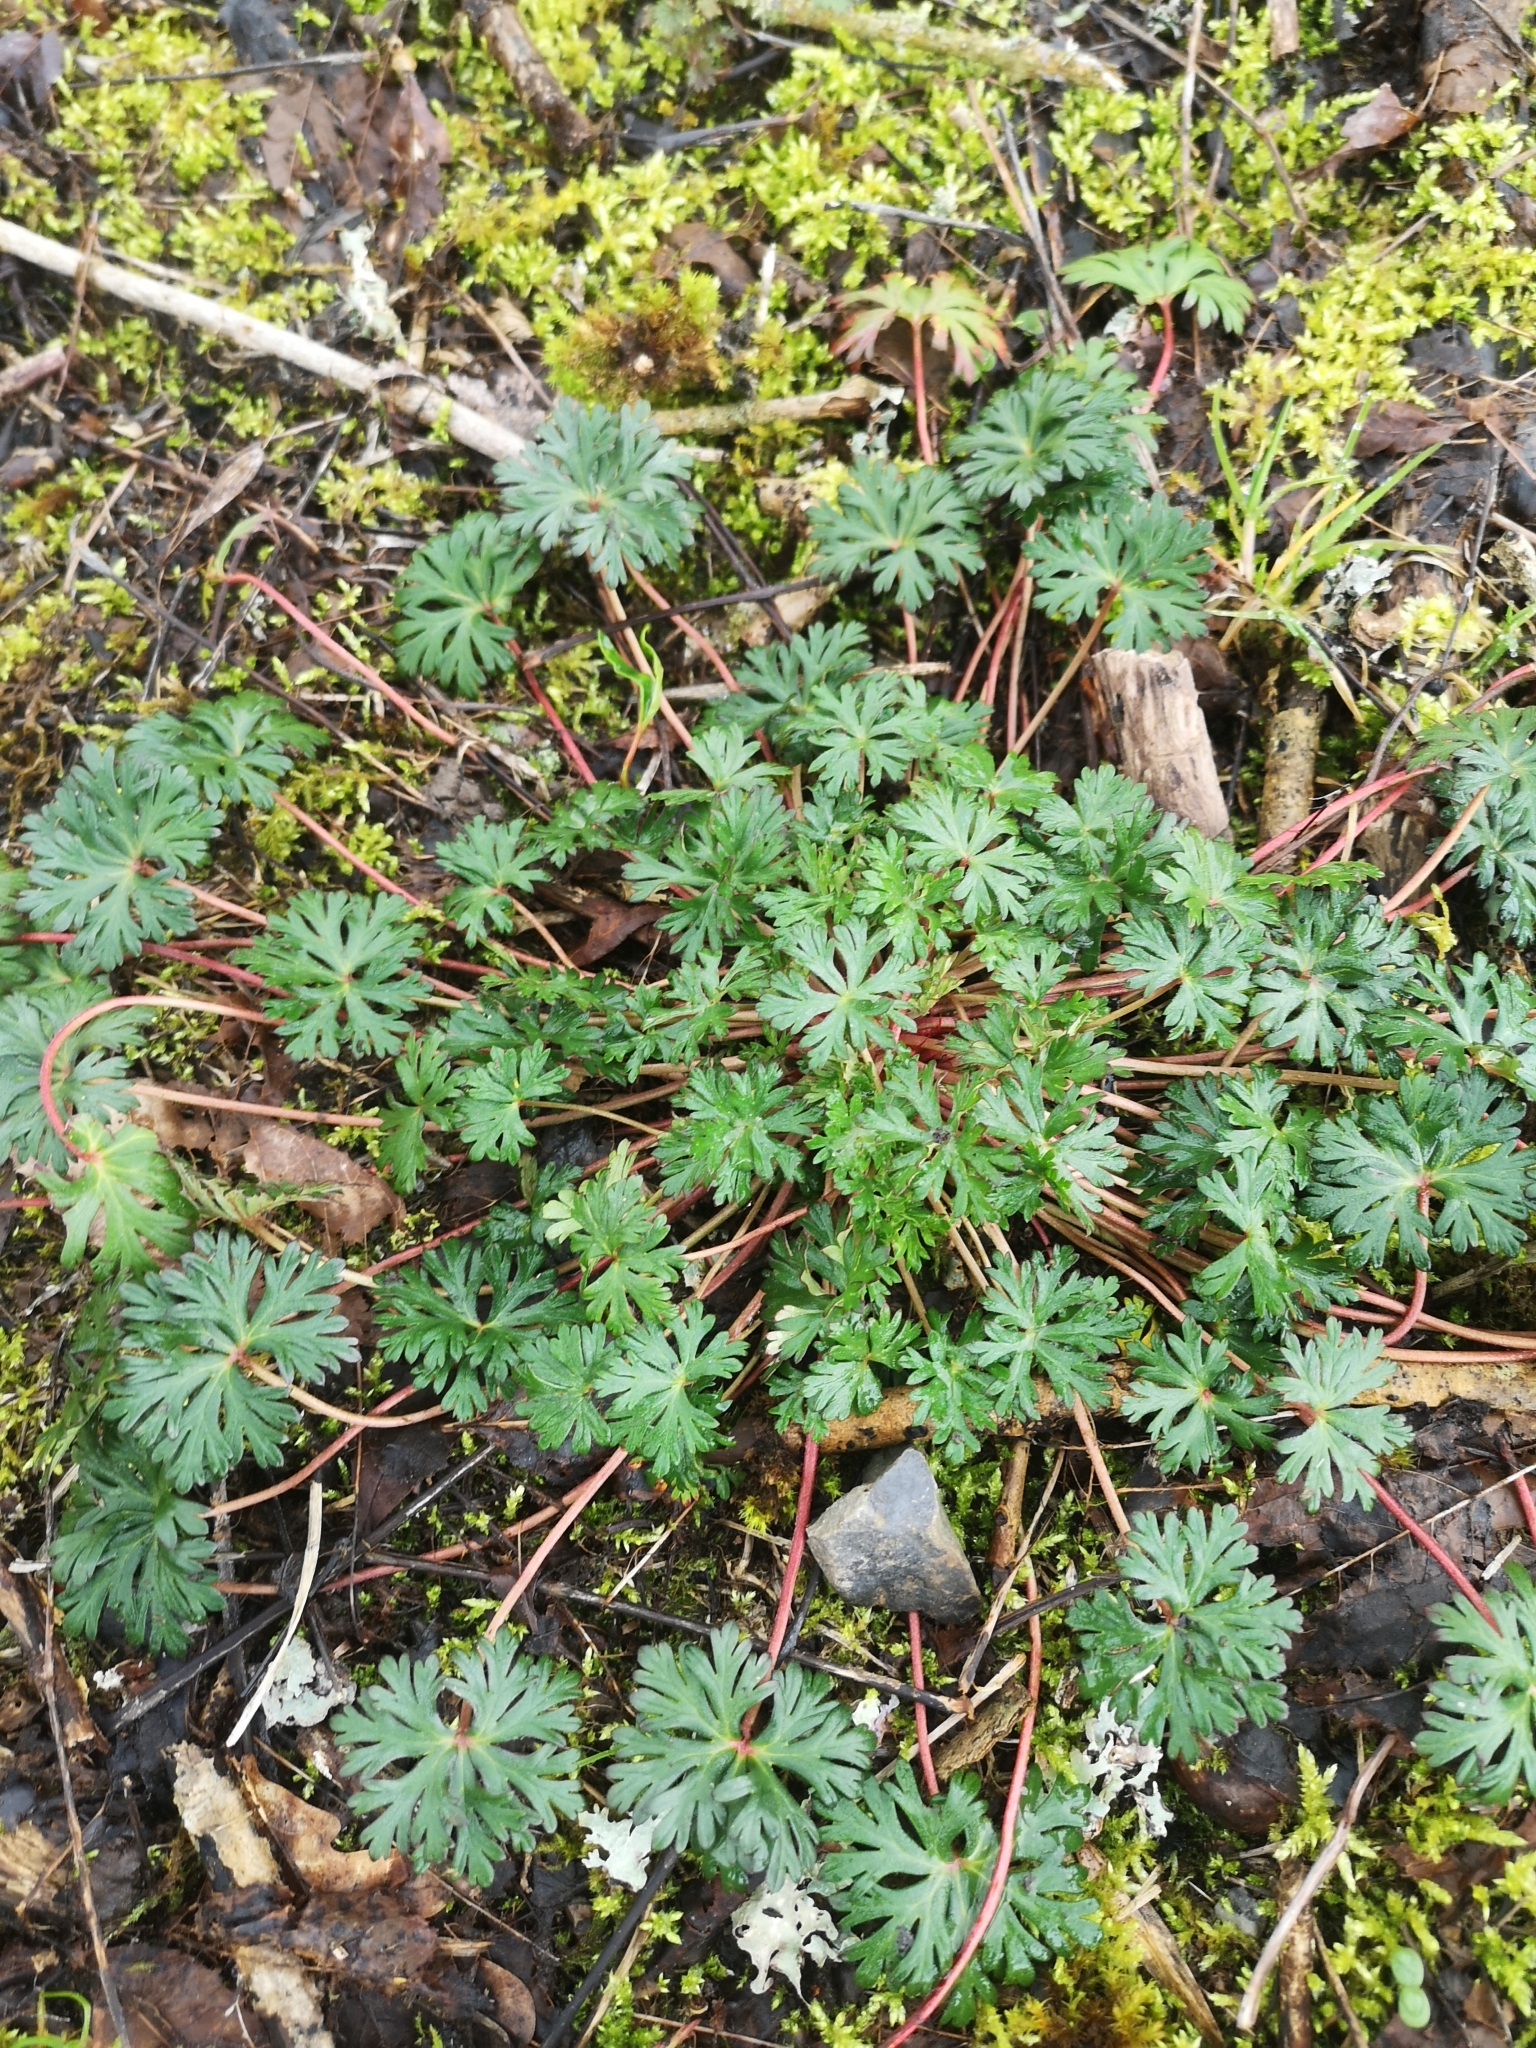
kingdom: Plantae
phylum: Tracheophyta
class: Magnoliopsida
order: Geraniales
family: Geraniaceae
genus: Geranium
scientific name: Geranium columbinum
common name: Long-stalked crane's-bill
